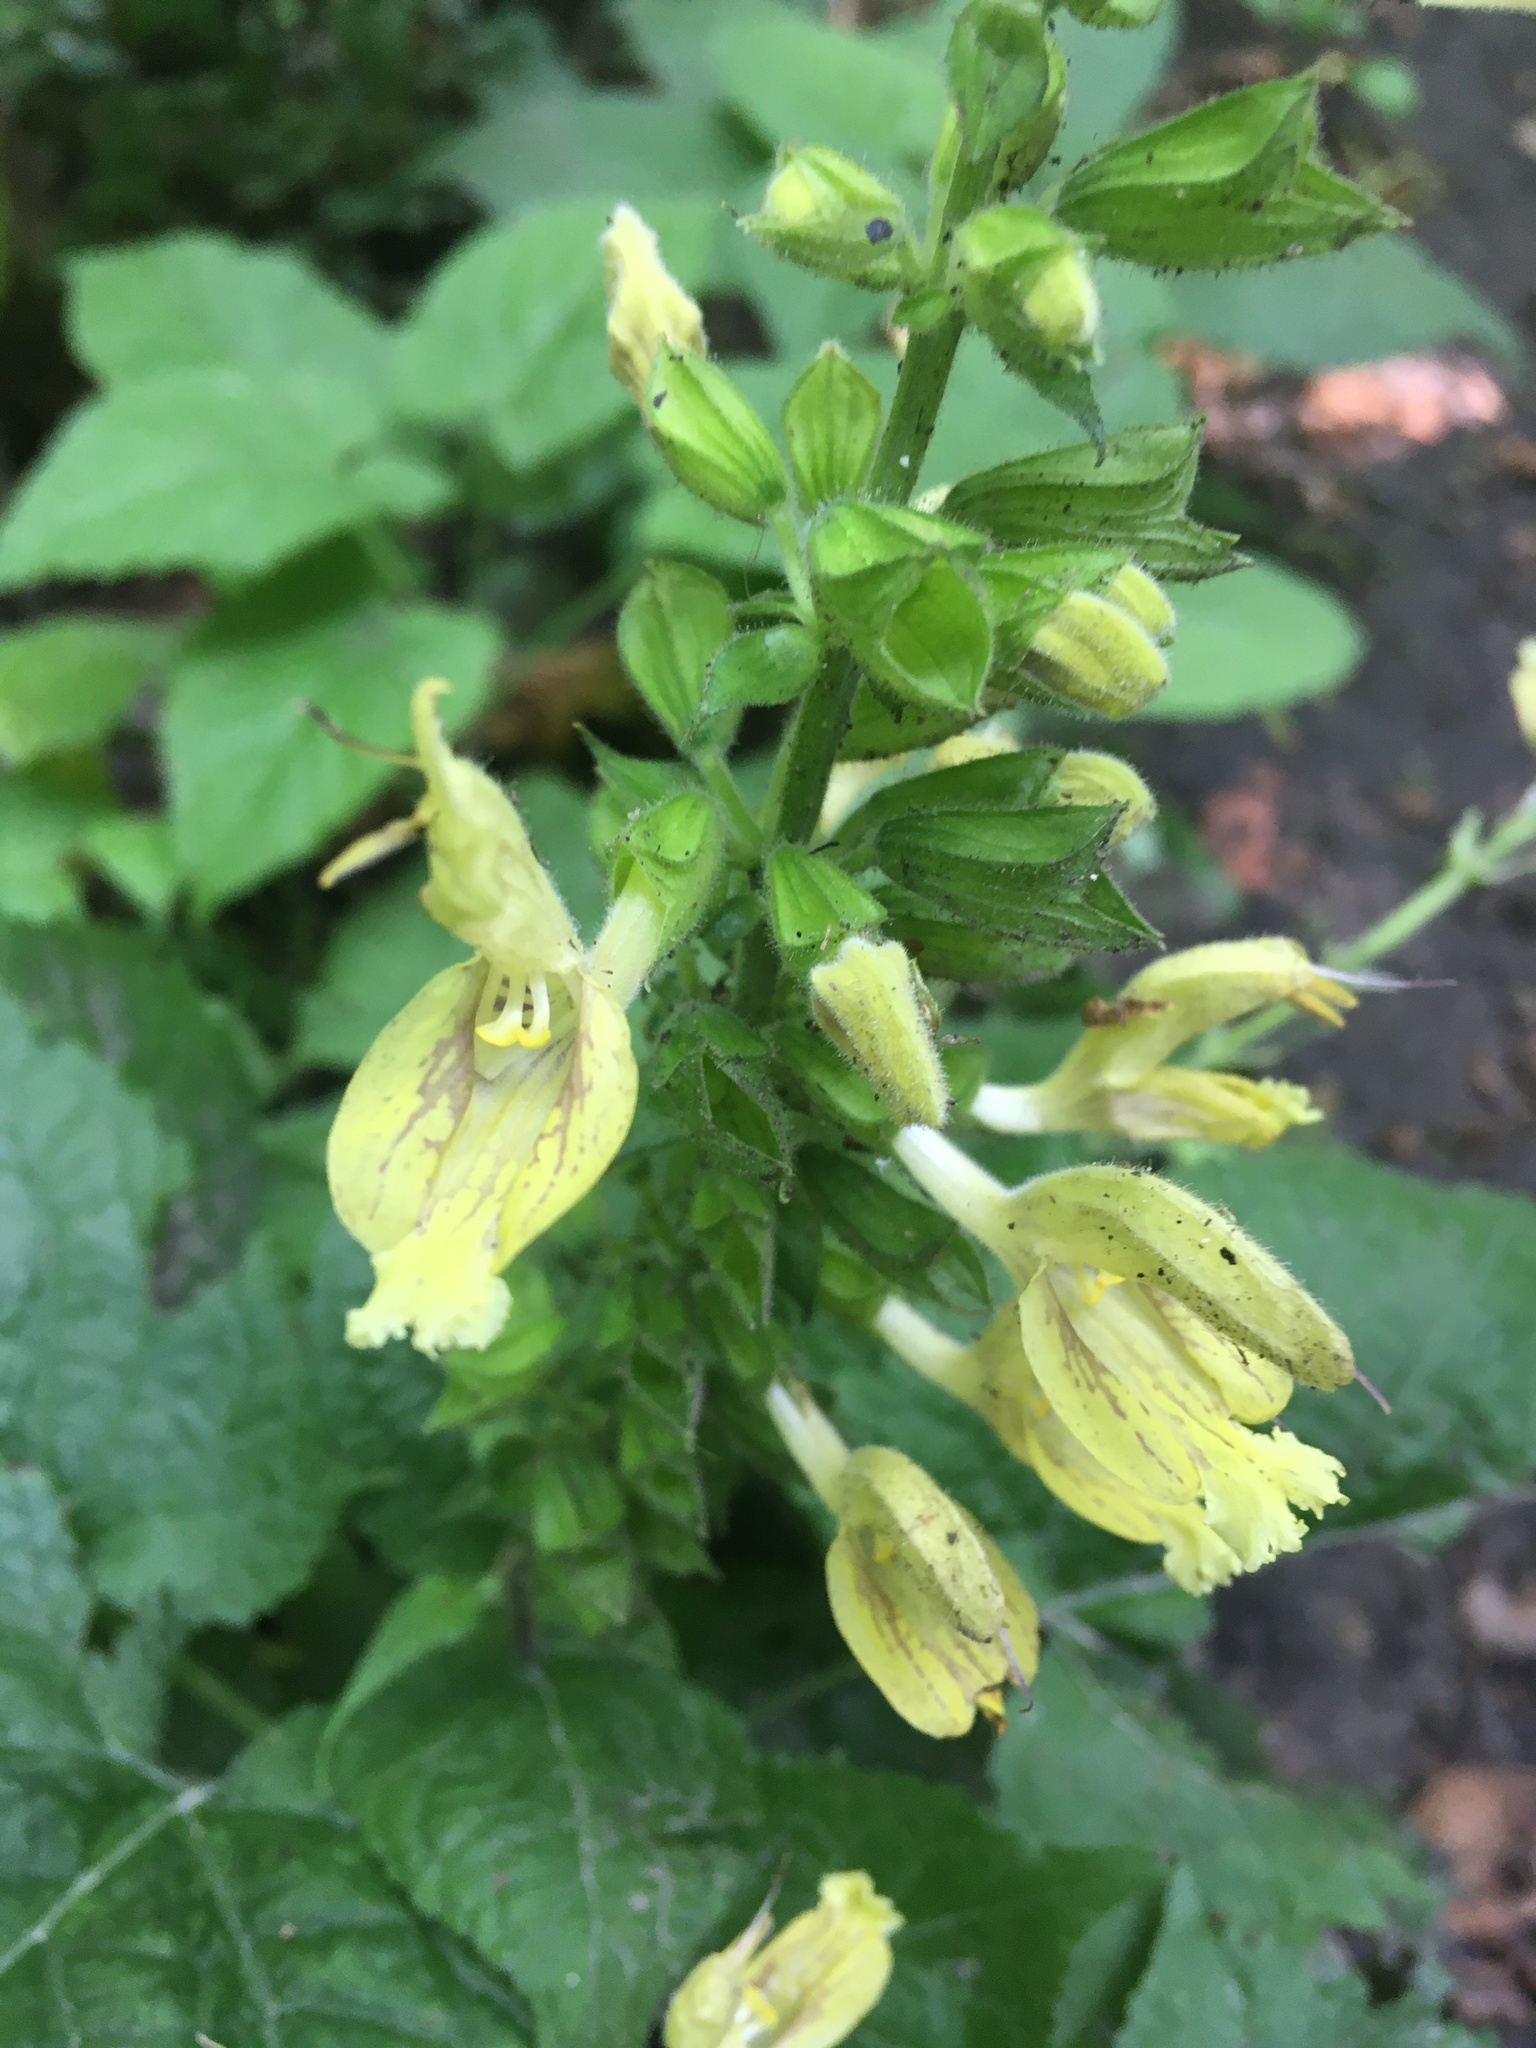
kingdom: Plantae
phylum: Tracheophyta
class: Magnoliopsida
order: Lamiales
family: Lamiaceae
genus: Salvia
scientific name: Salvia glutinosa
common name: Sticky clary
